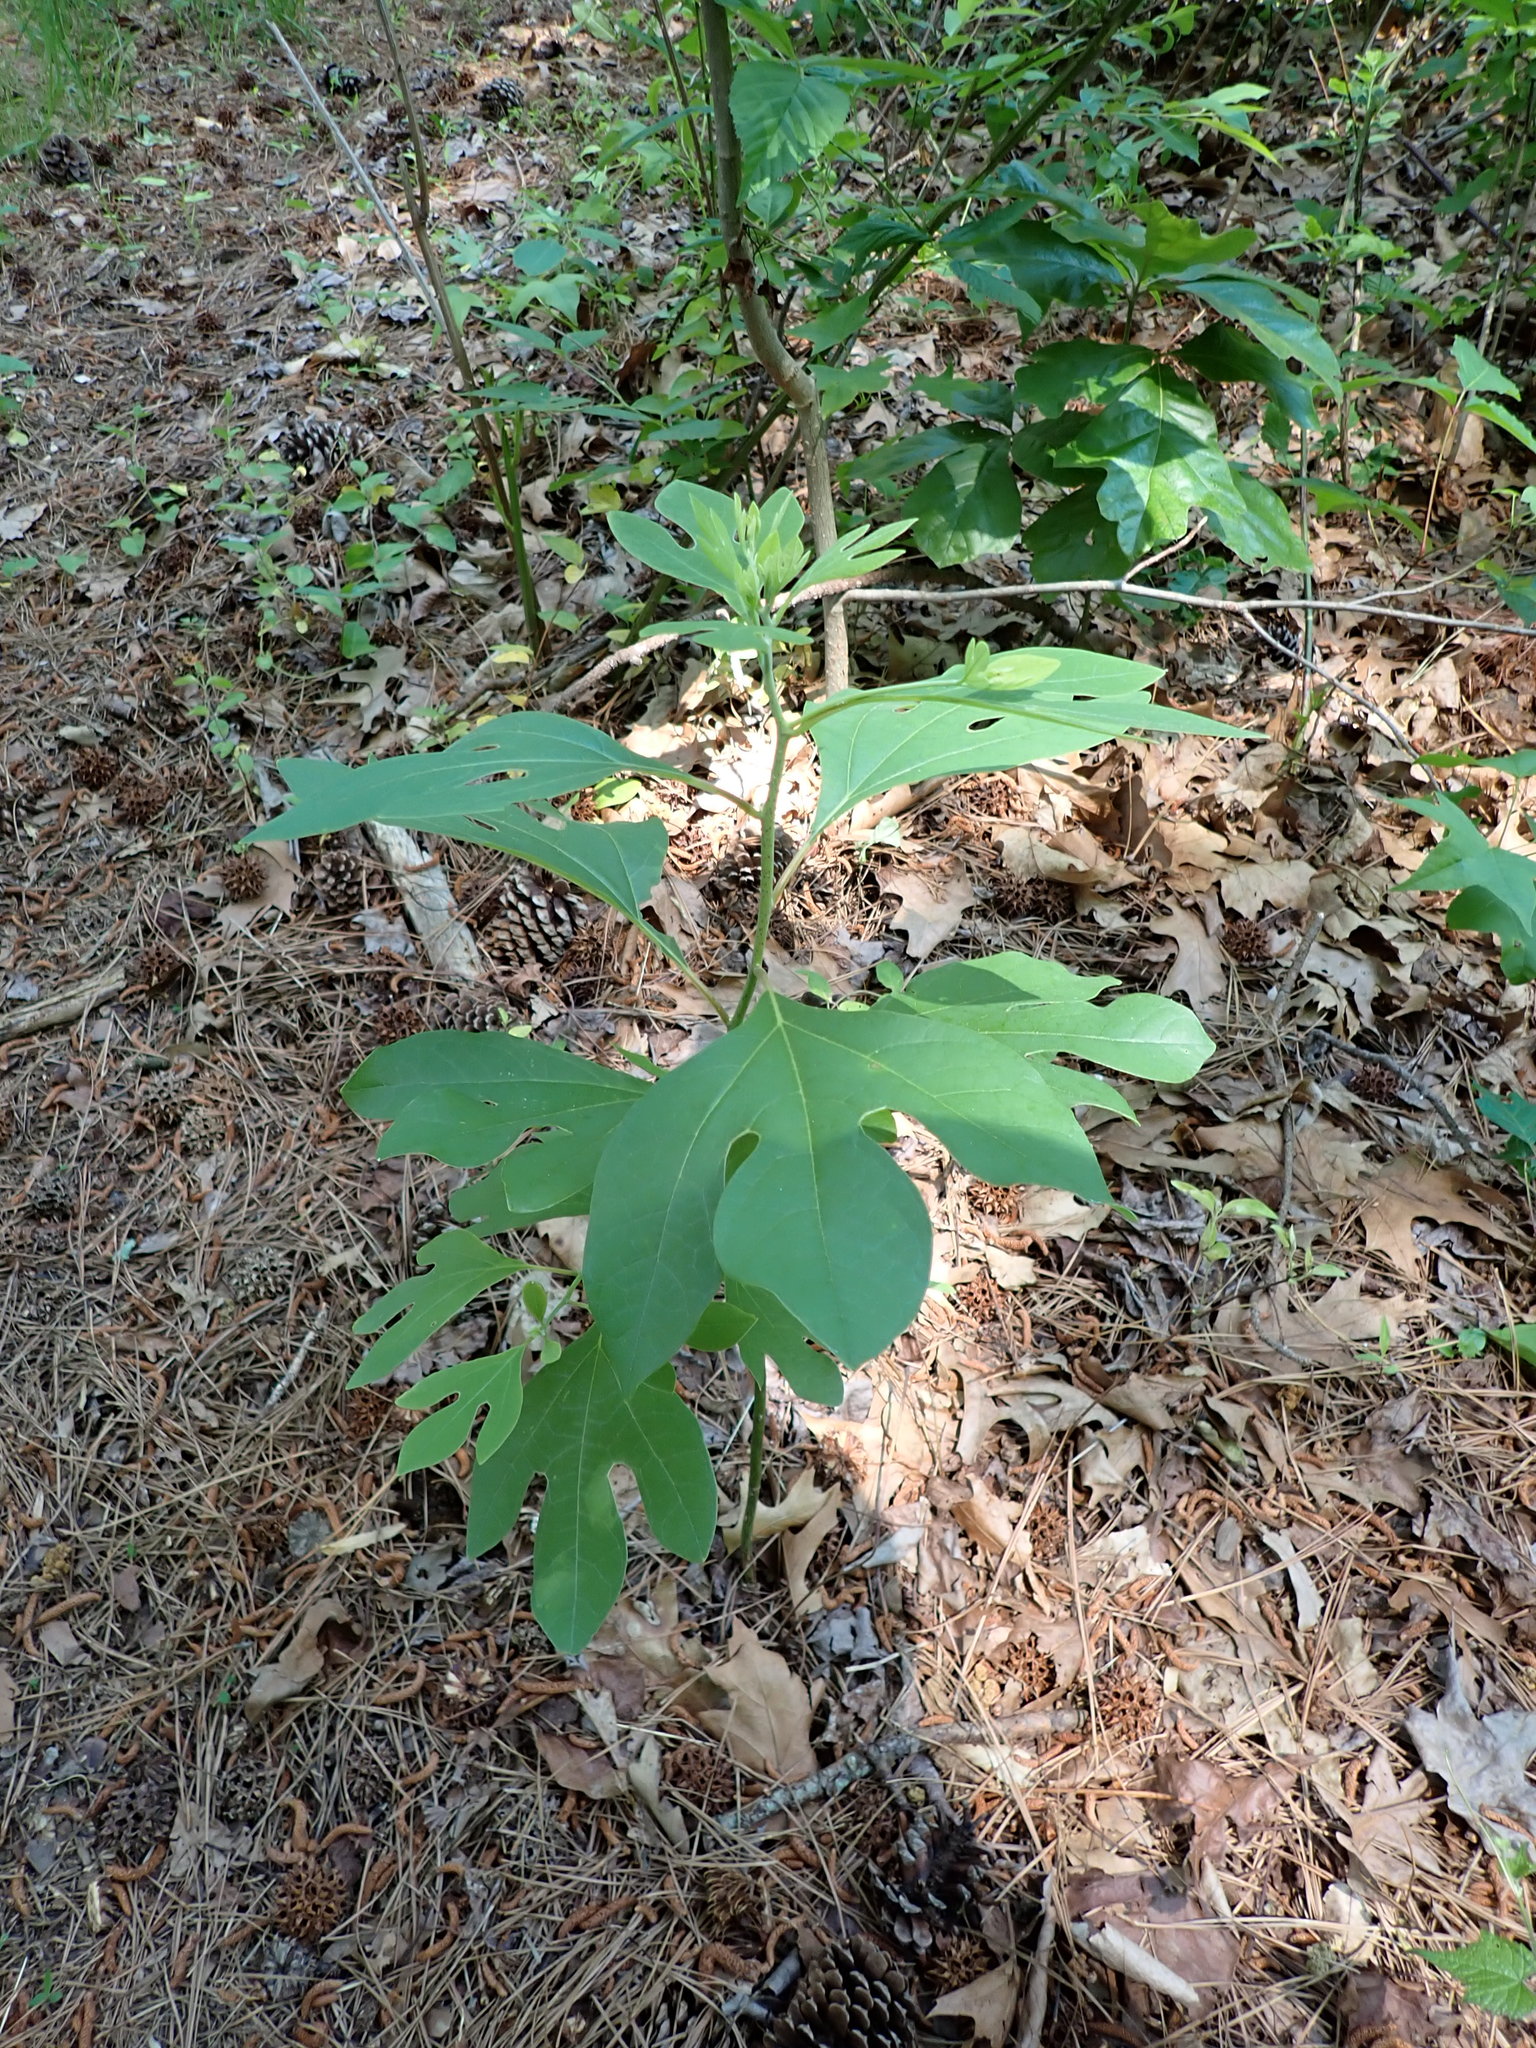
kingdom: Plantae
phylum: Tracheophyta
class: Magnoliopsida
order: Laurales
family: Lauraceae
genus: Sassafras
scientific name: Sassafras albidum
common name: Sassafras
